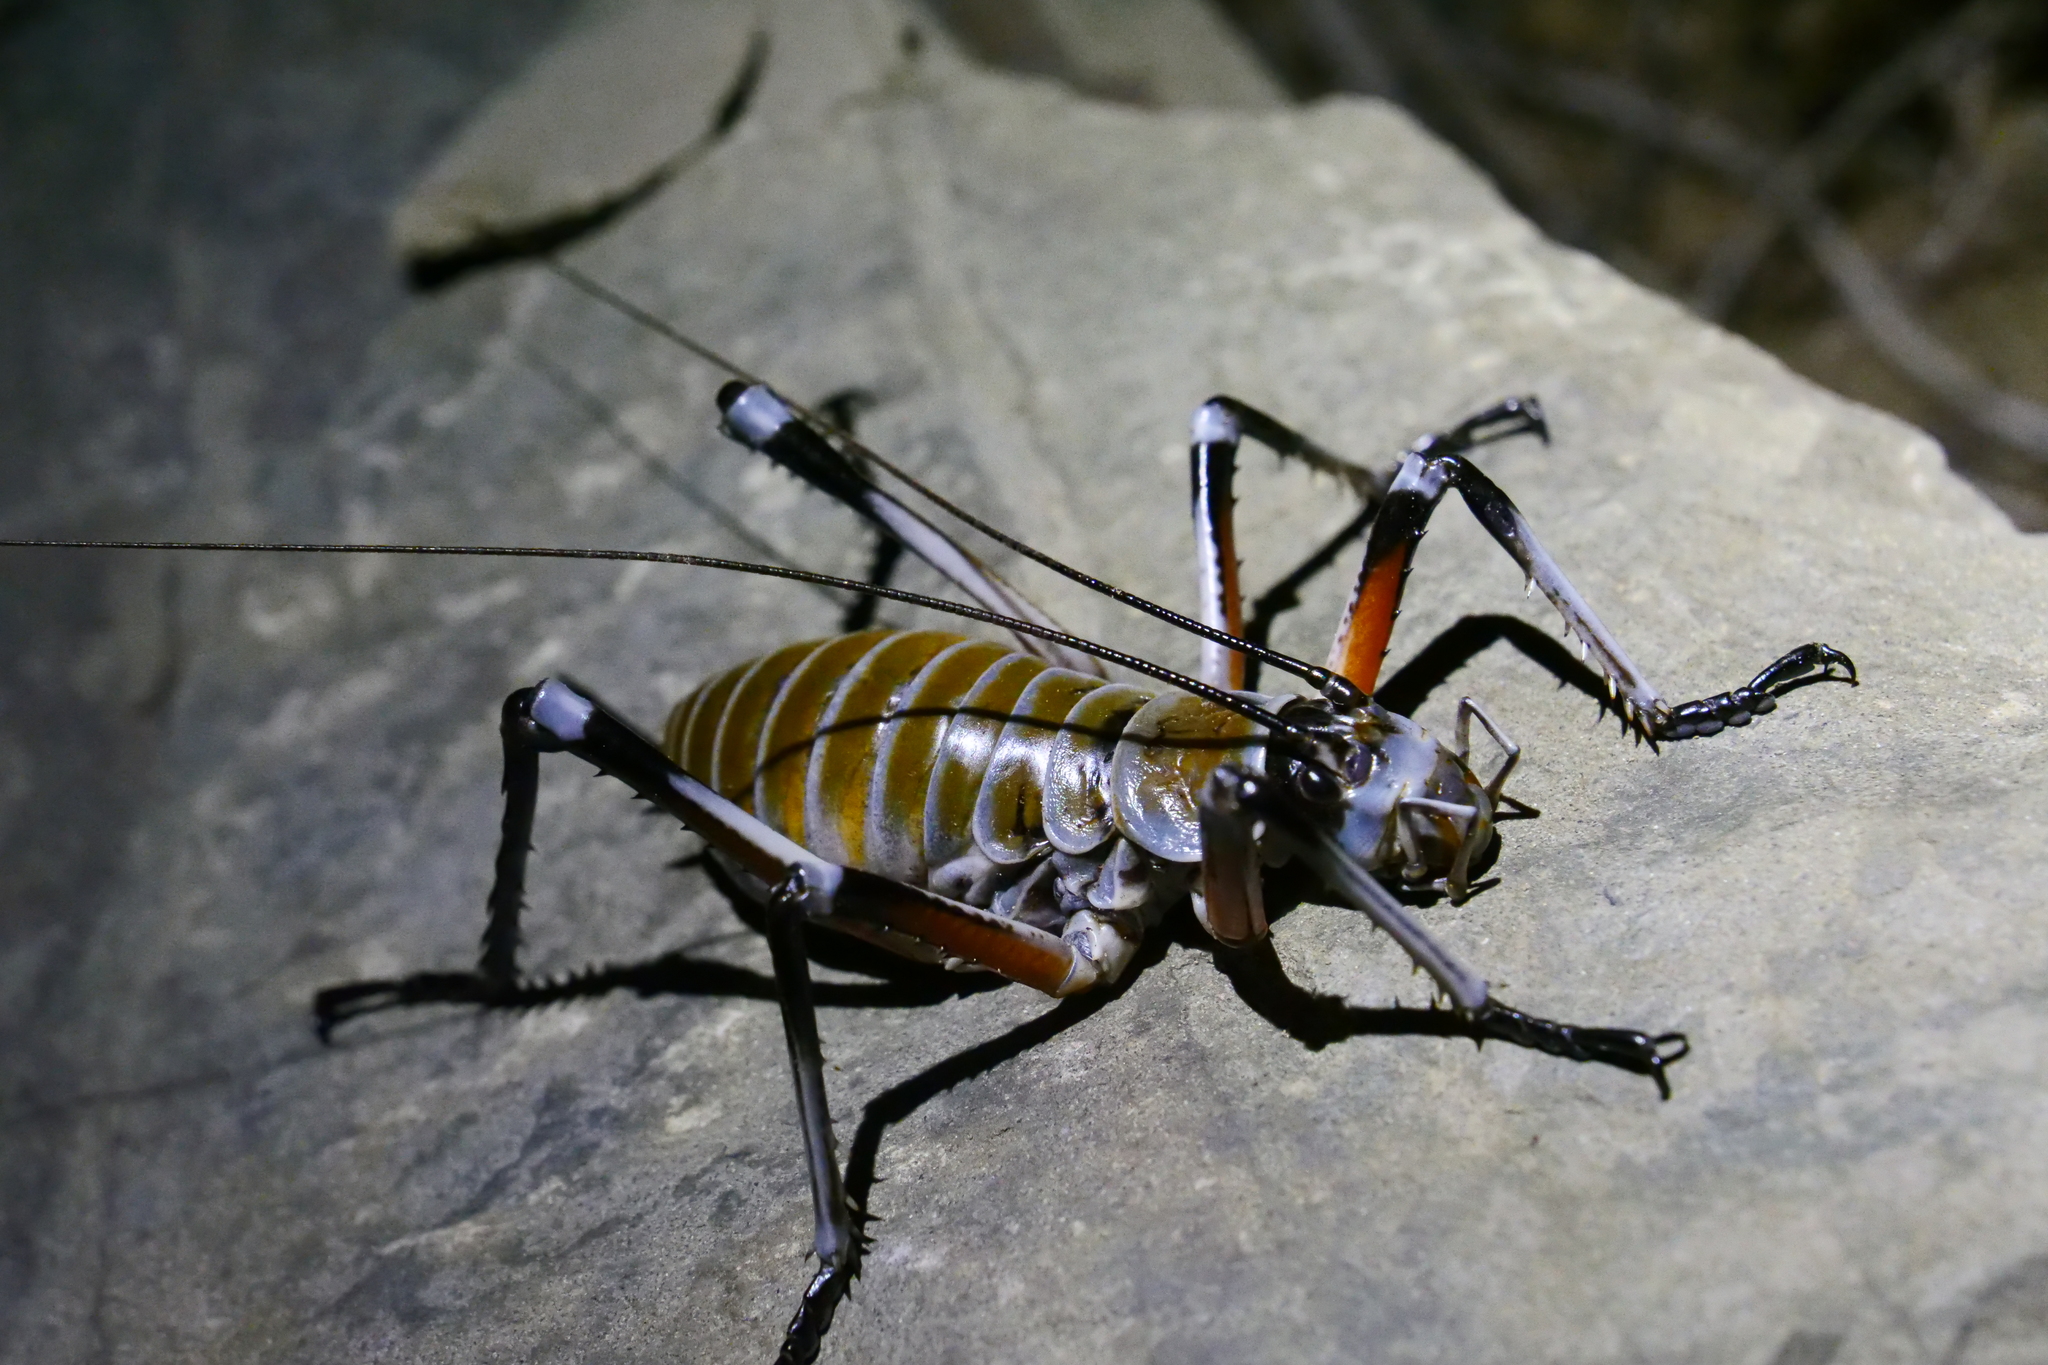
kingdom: Animalia
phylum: Arthropoda
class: Insecta
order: Orthoptera
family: Anostostomatidae
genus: Deinacrida
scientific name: Deinacrida elegans
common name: Bluff weta
